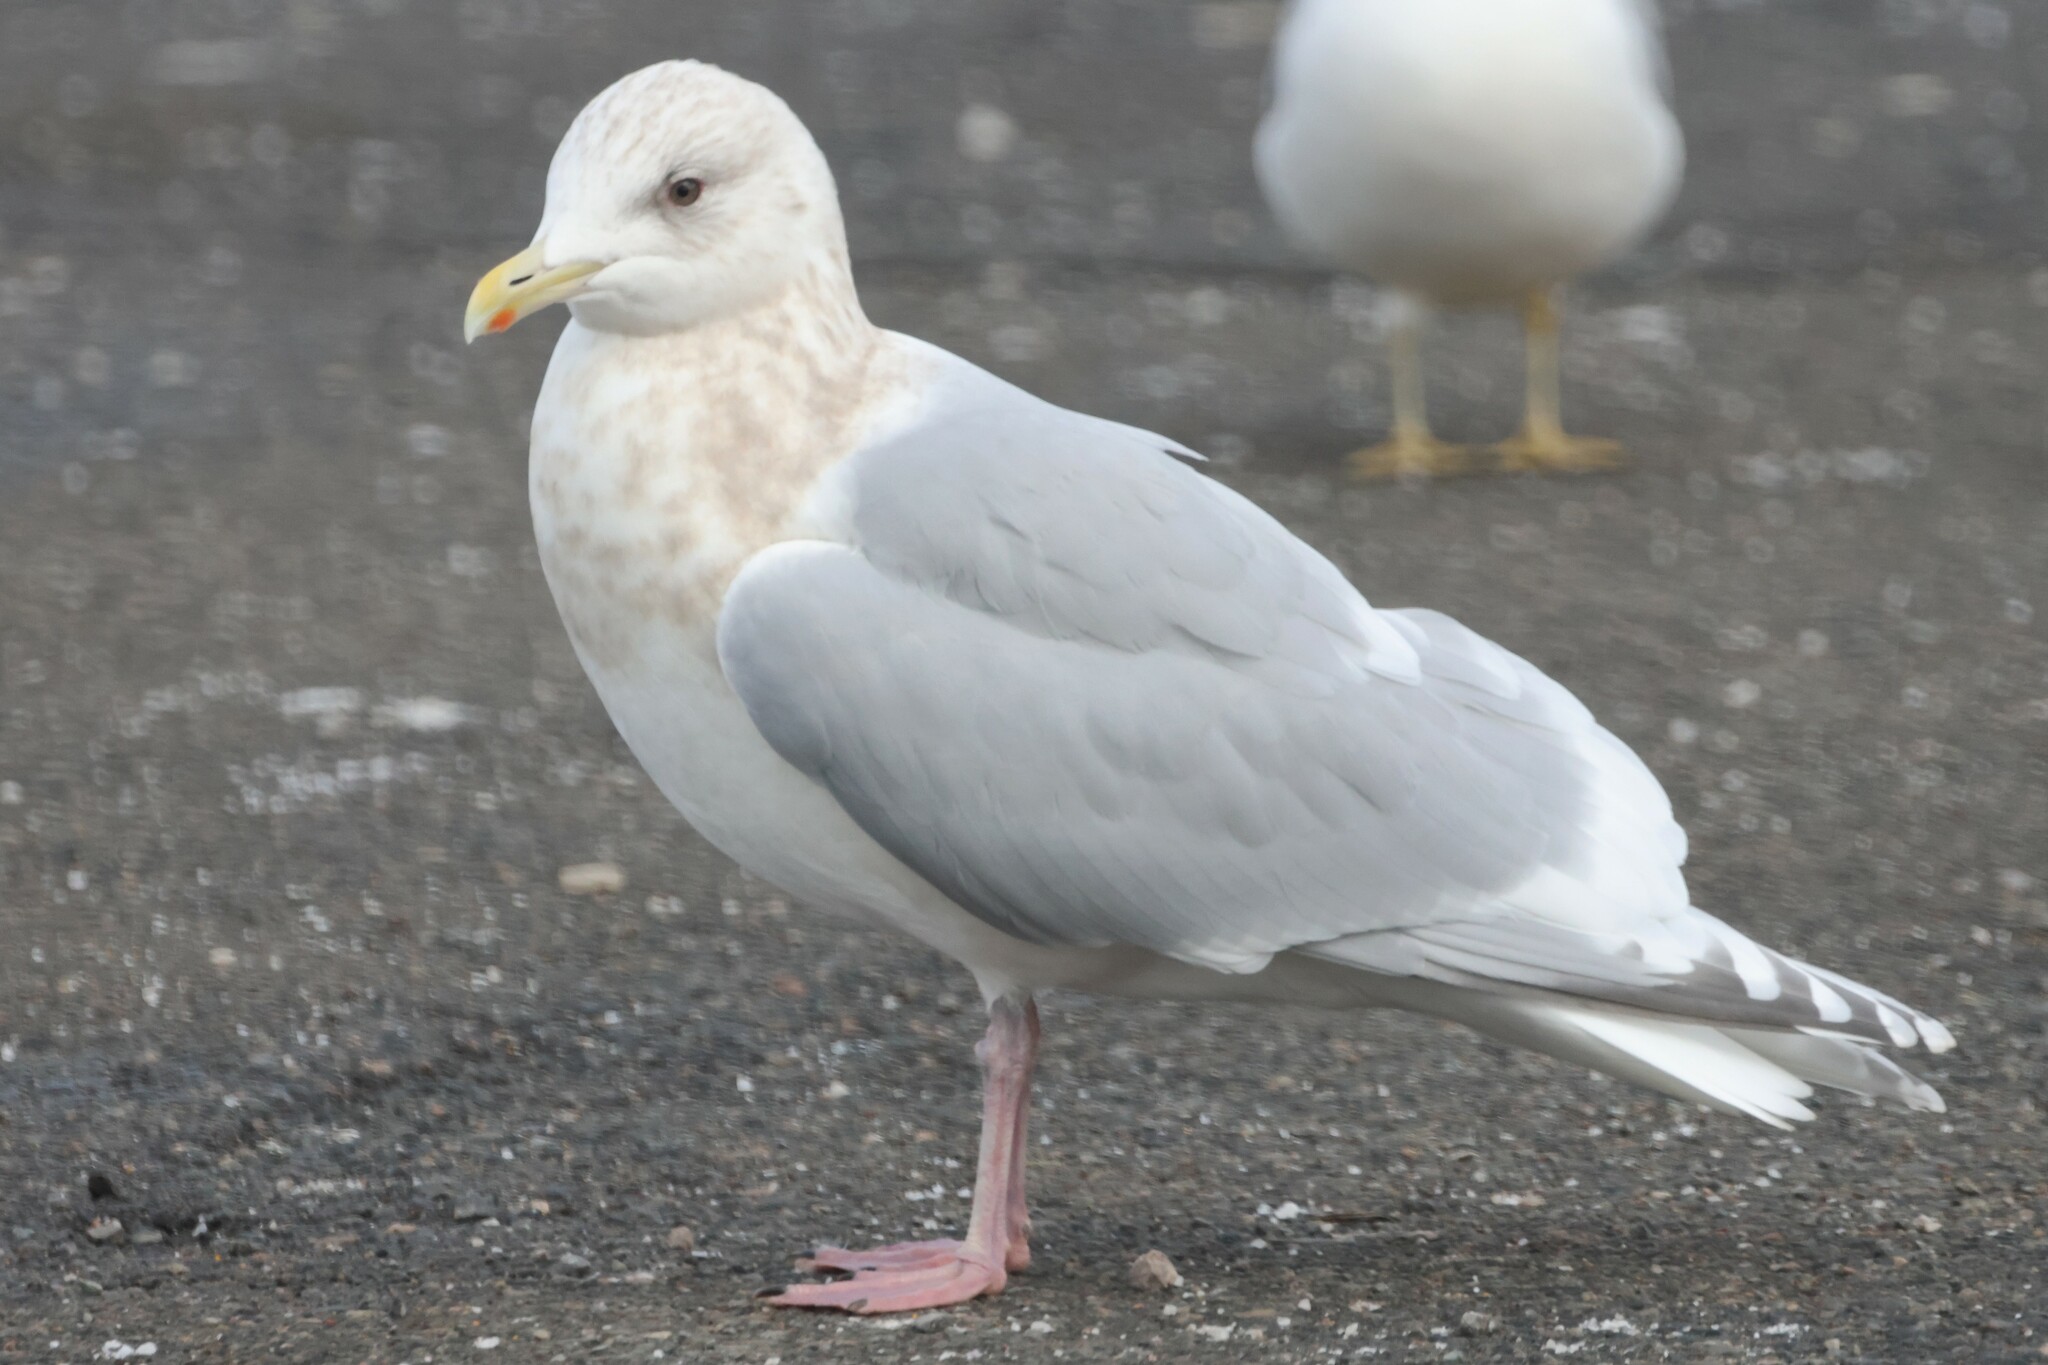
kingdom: Animalia
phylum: Chordata
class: Aves
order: Charadriiformes
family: Laridae
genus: Larus
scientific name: Larus glaucoides
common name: Iceland gull
